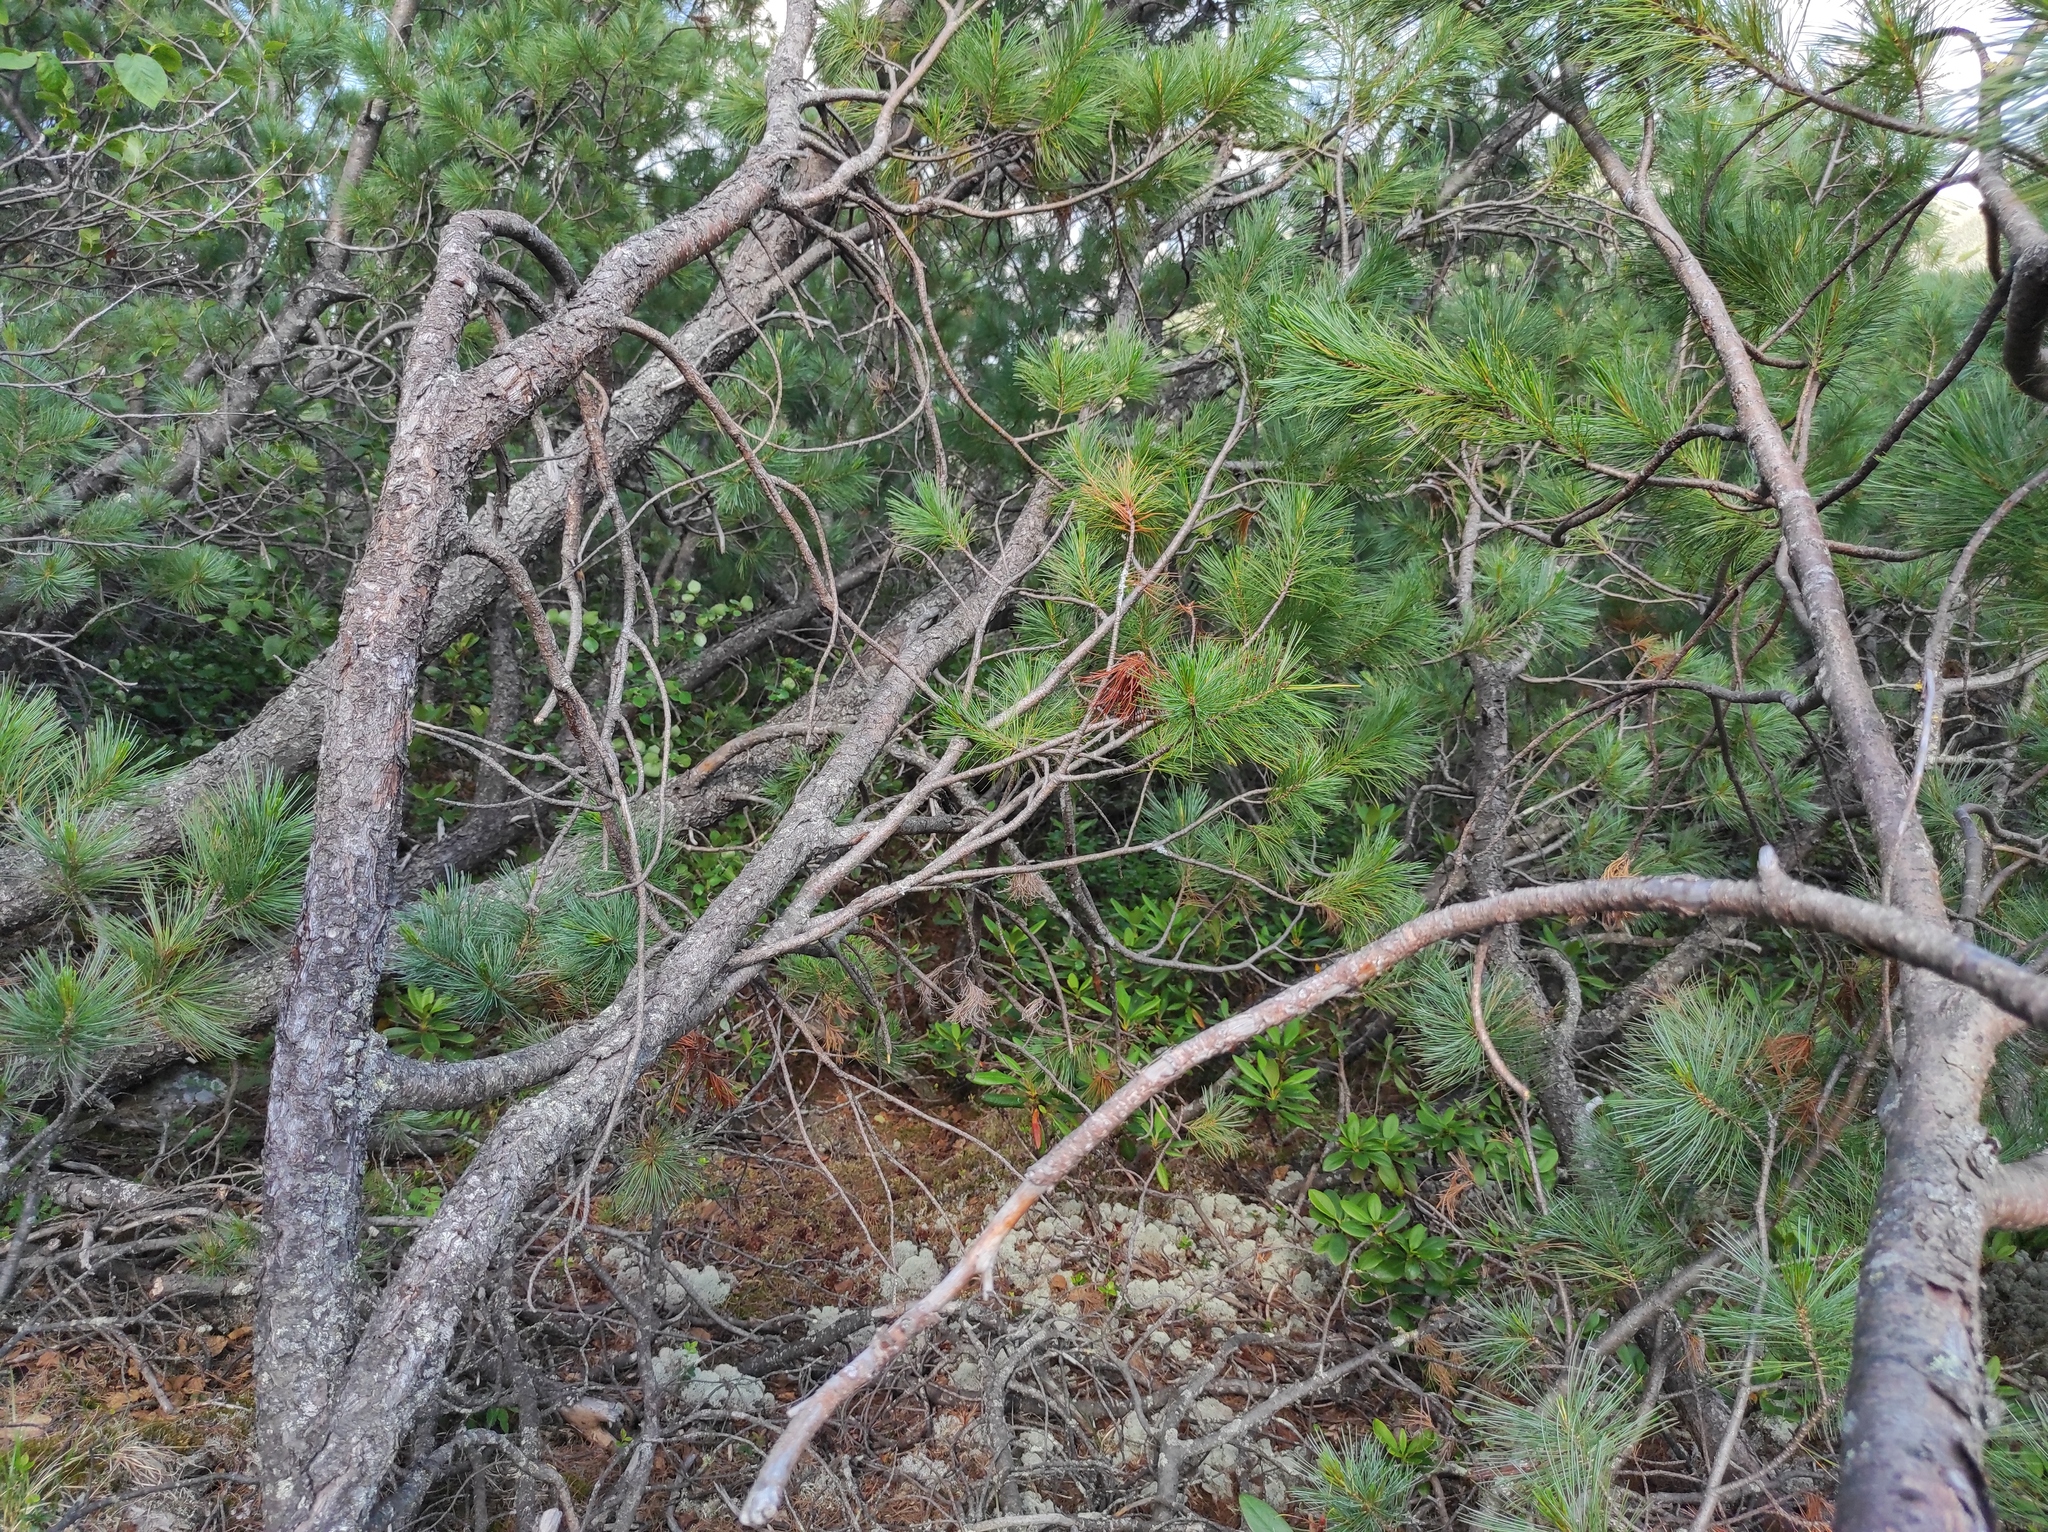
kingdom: Plantae
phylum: Tracheophyta
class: Pinopsida
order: Pinales
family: Pinaceae
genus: Pinus
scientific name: Pinus pumila
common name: Dwarf siberian pine
